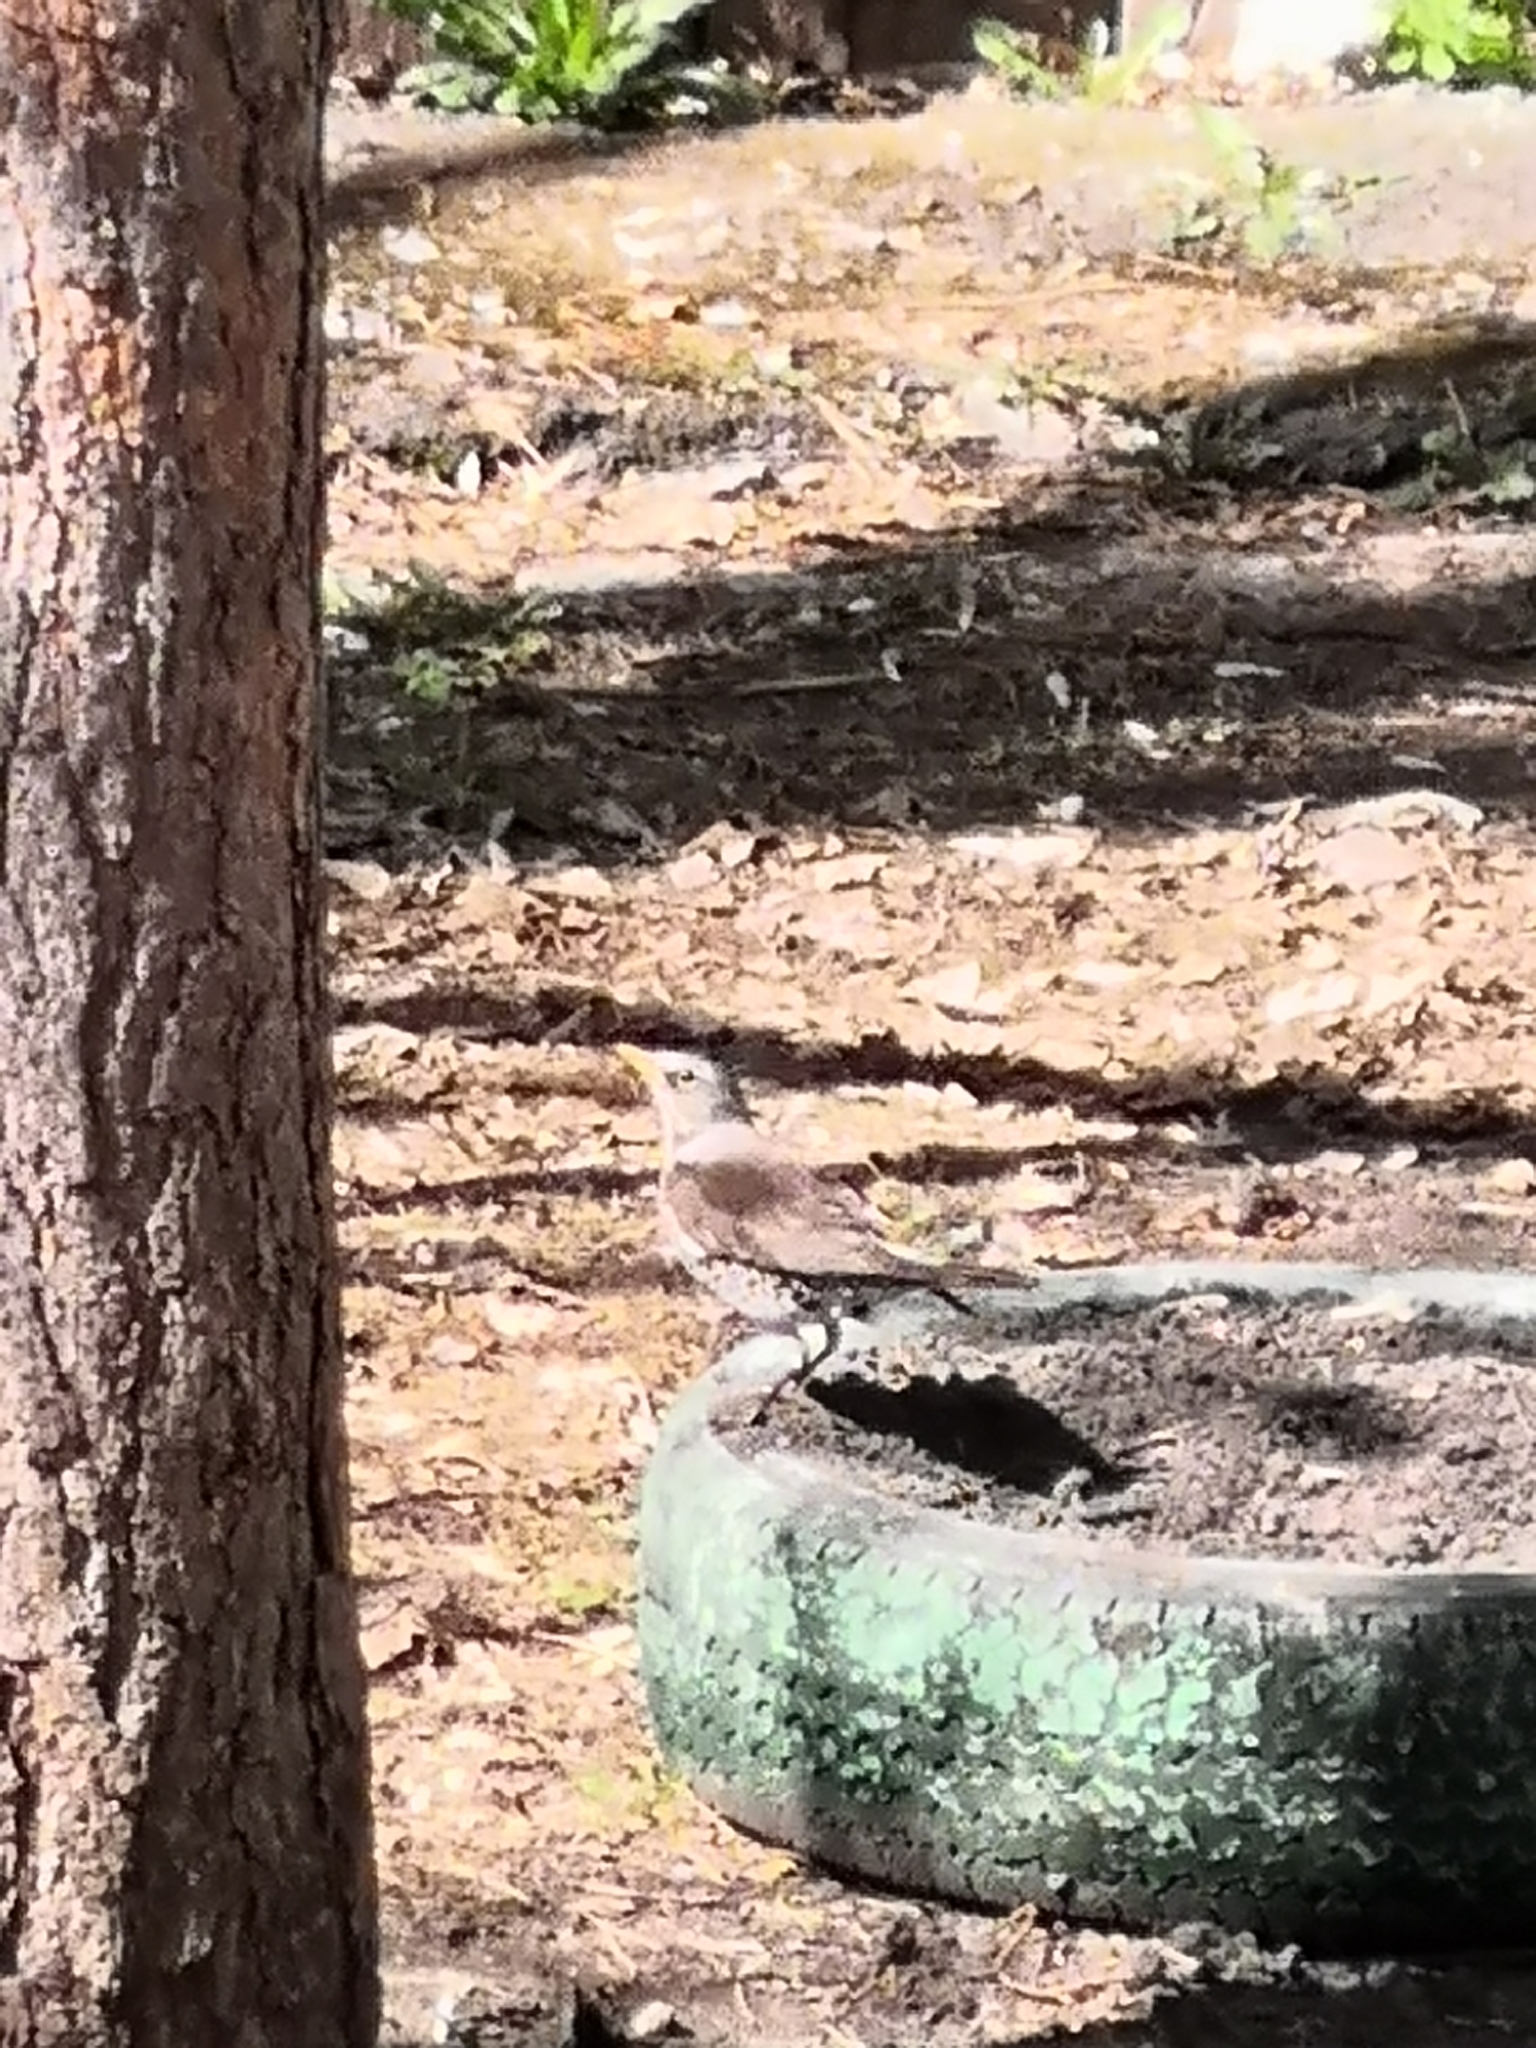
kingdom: Animalia
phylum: Chordata
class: Aves
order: Passeriformes
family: Turdidae
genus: Turdus
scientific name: Turdus pilaris
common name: Fieldfare
